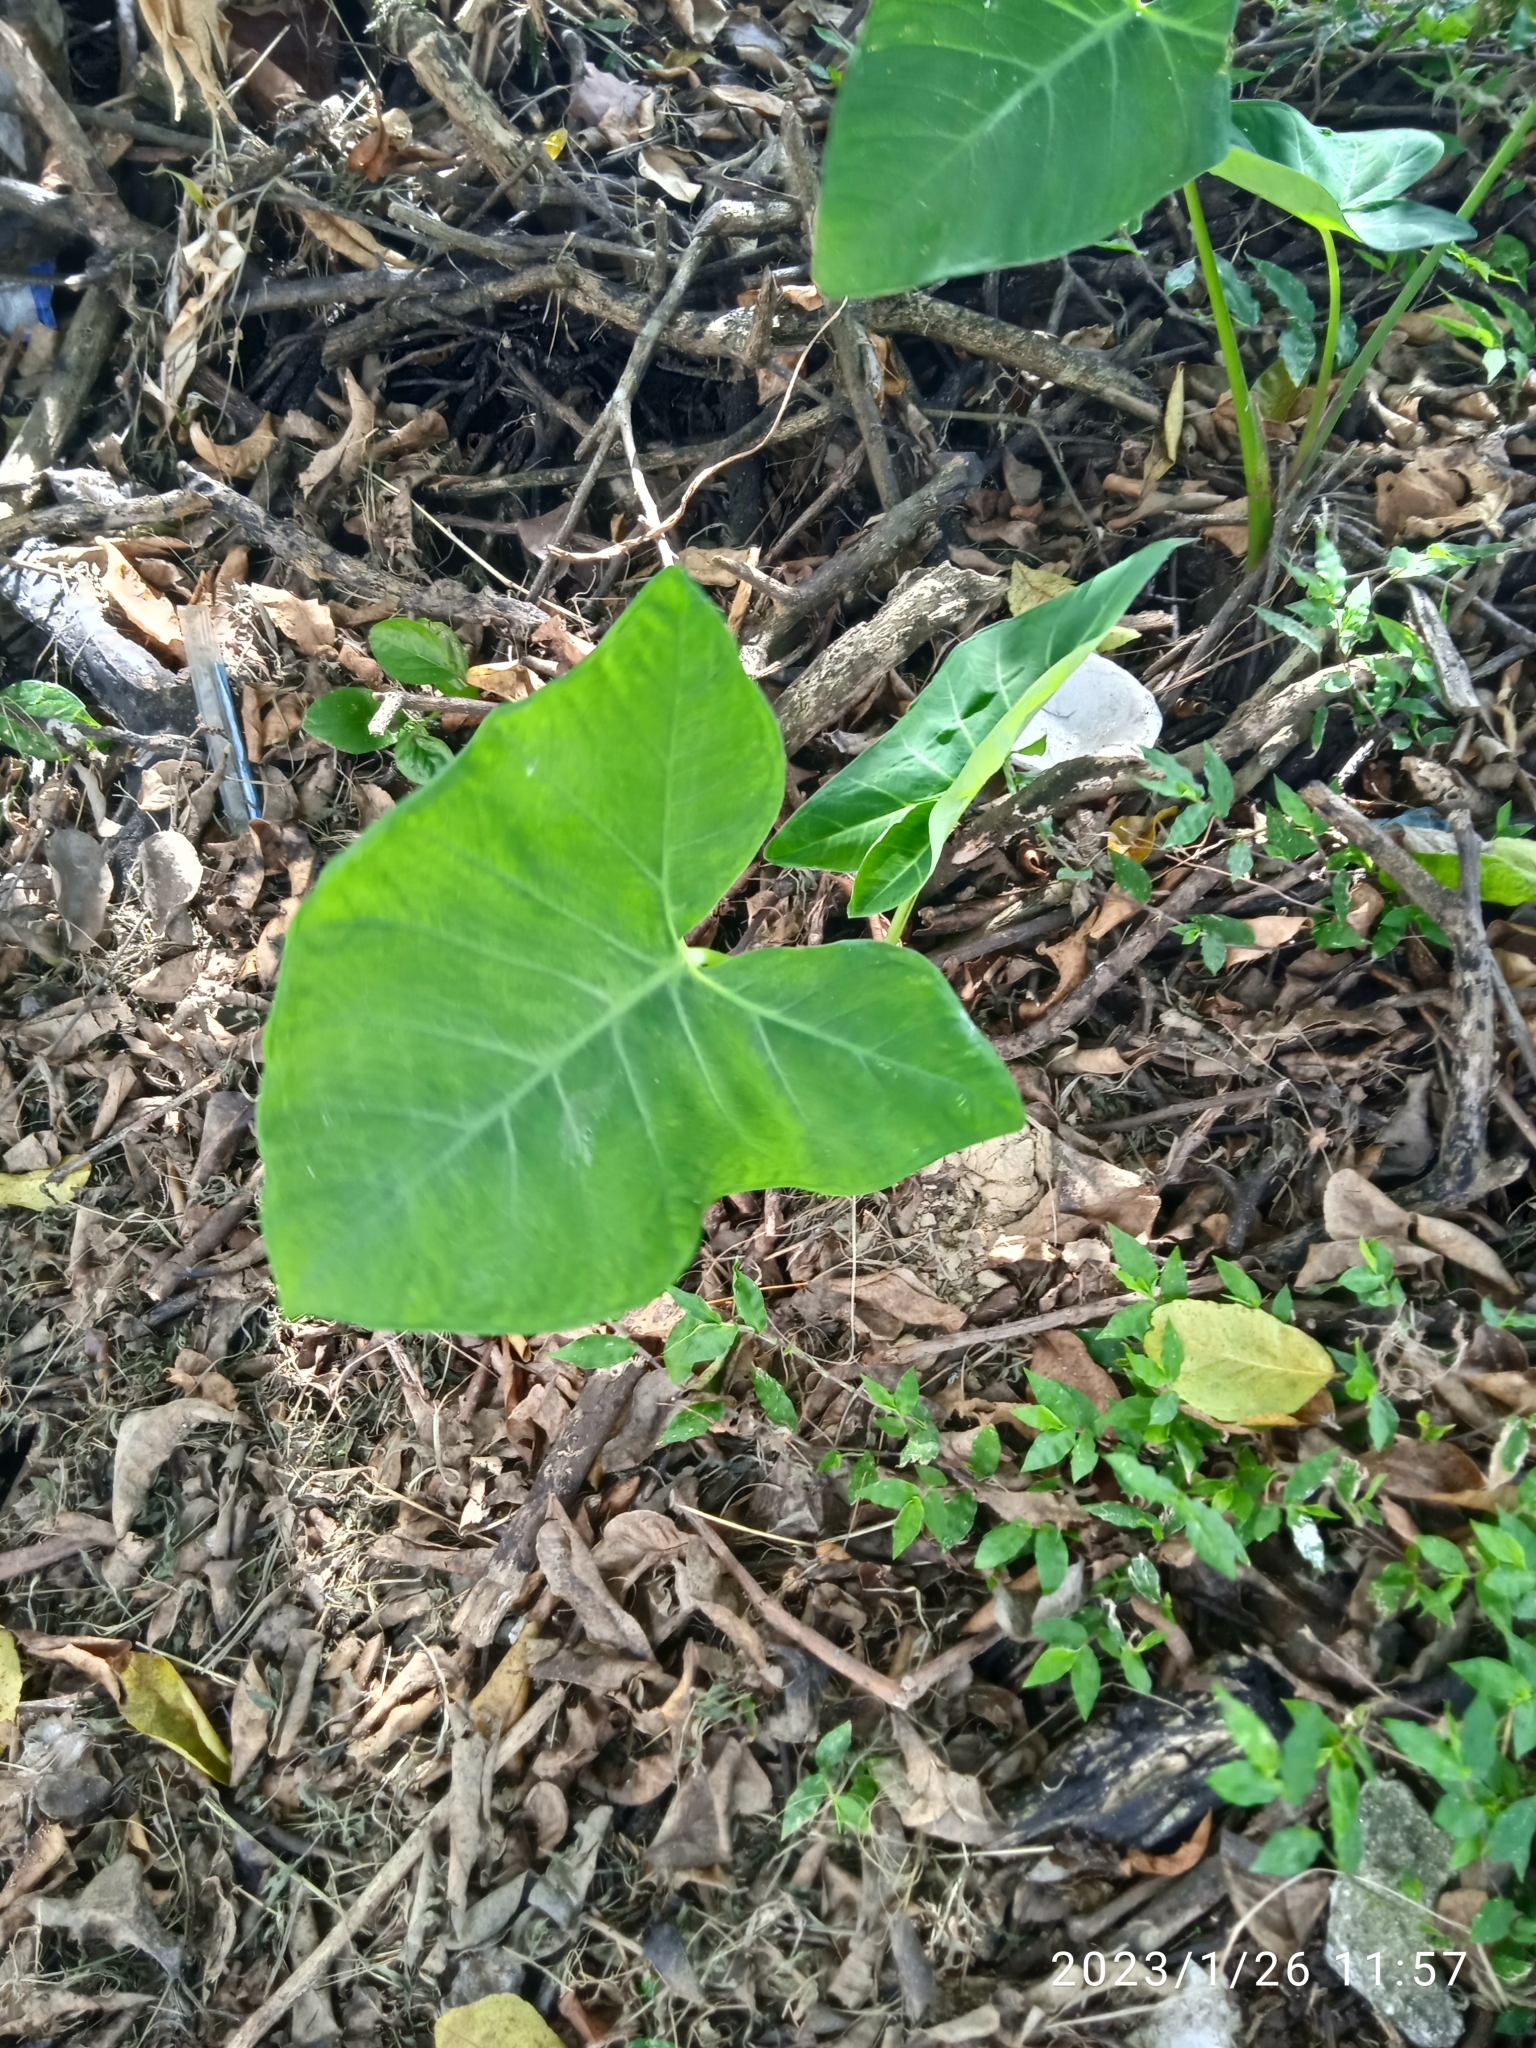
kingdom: Plantae
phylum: Tracheophyta
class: Liliopsida
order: Alismatales
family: Araceae
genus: Xanthosoma
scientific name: Xanthosoma sagittifolium
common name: Arrowleaf elephant's ear
